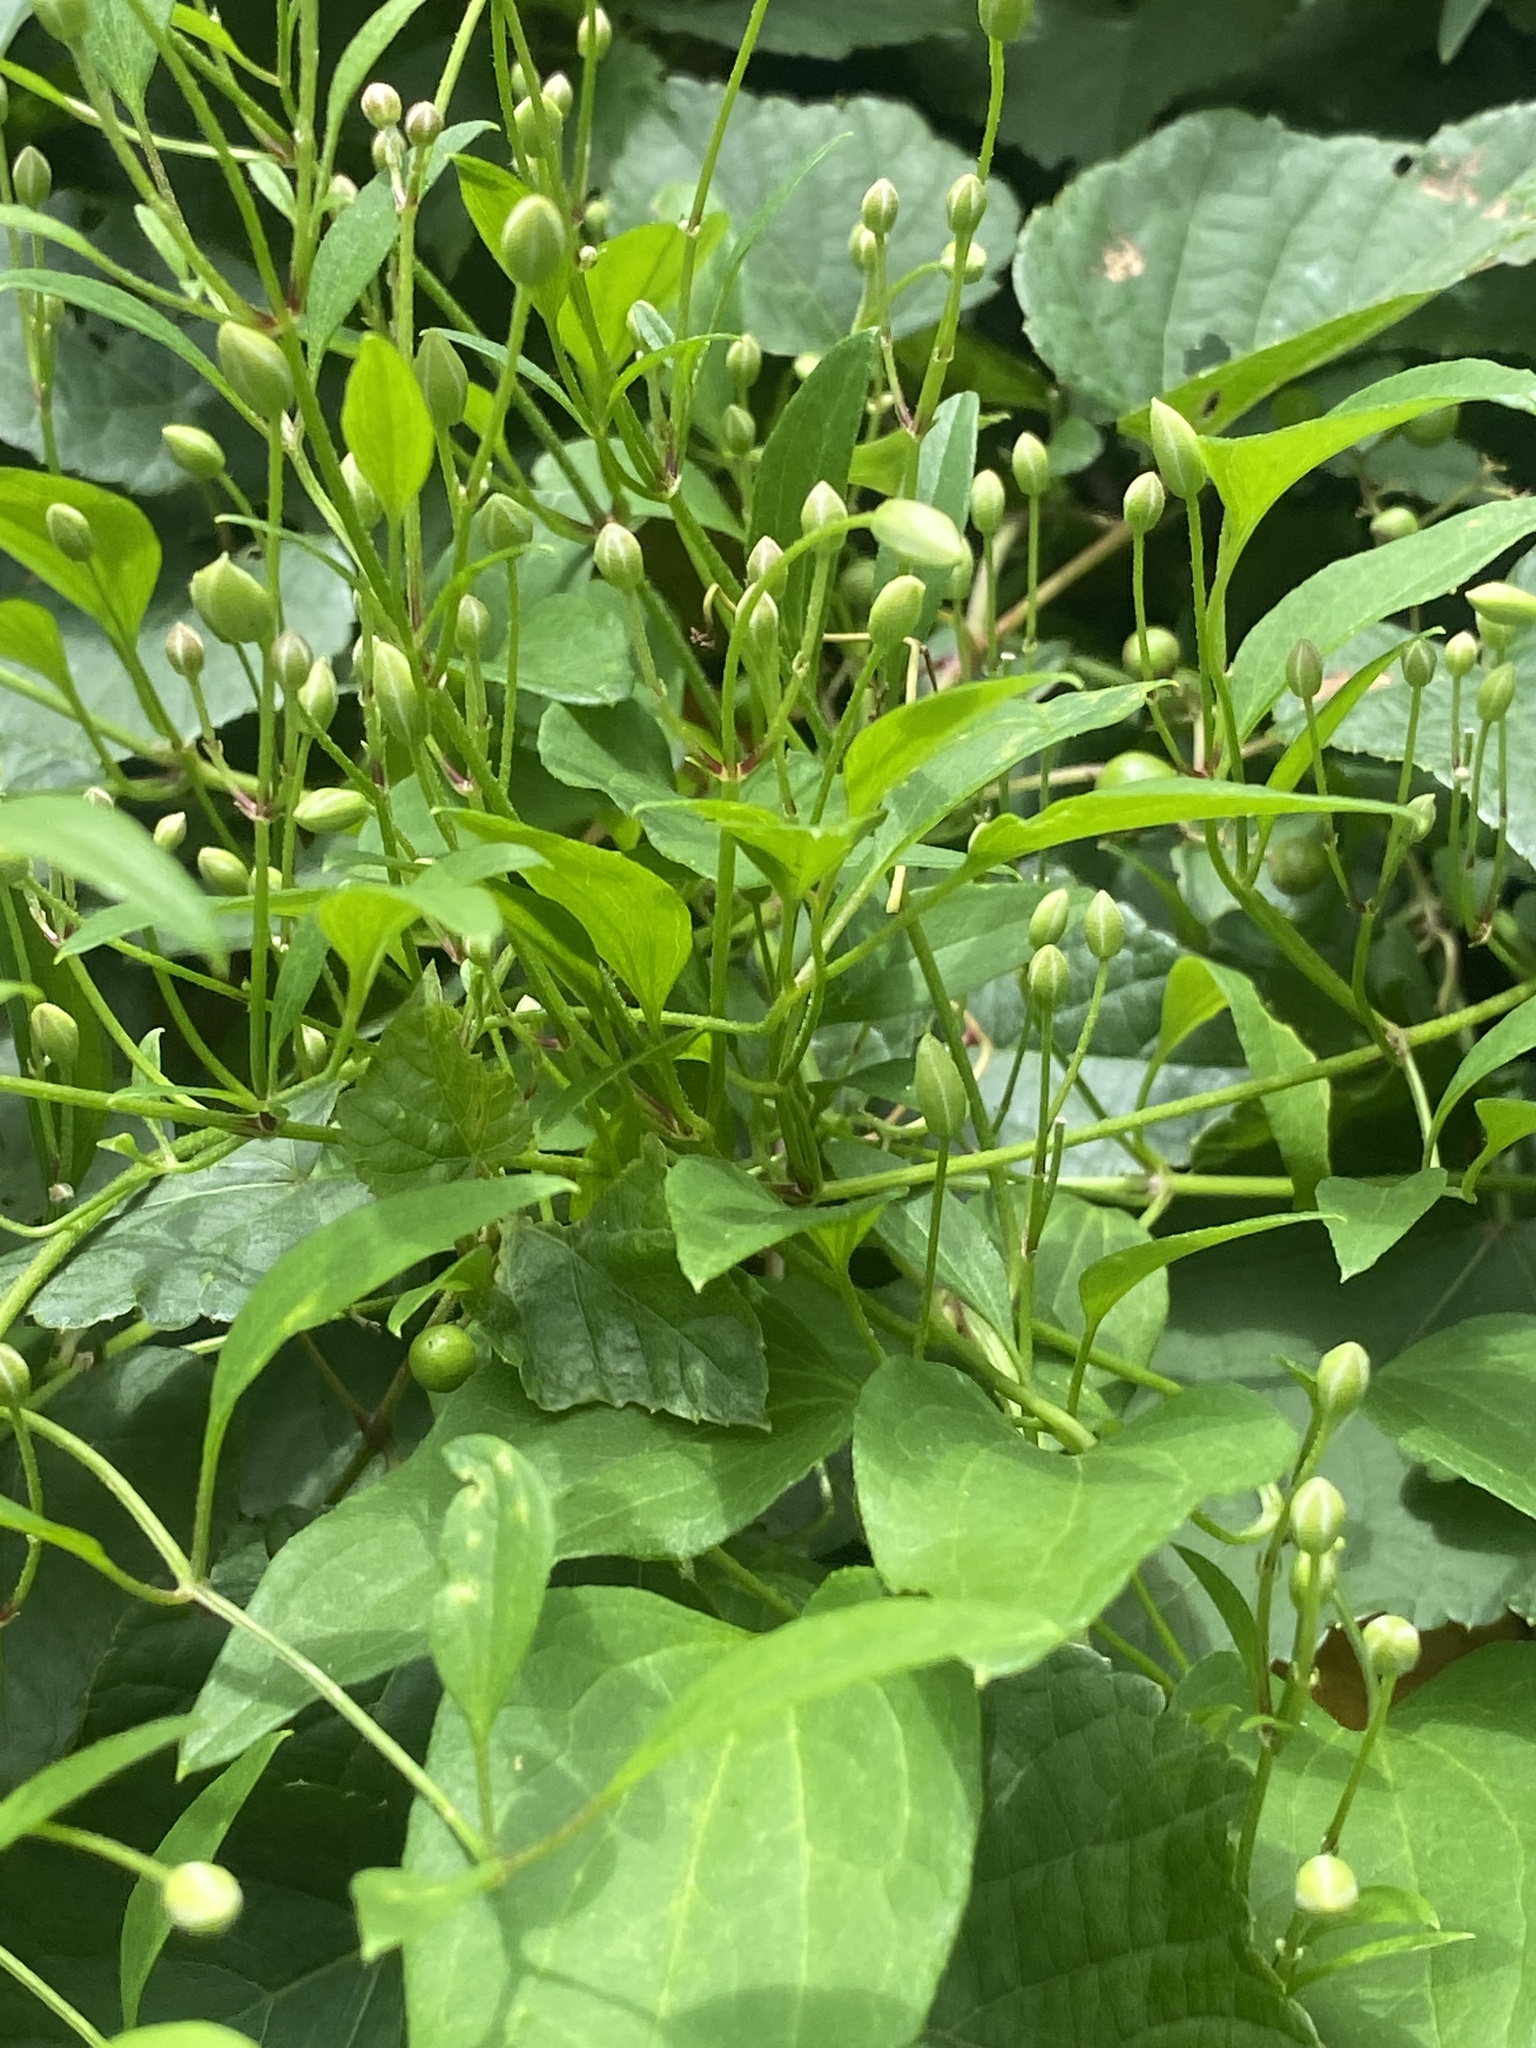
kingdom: Plantae
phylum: Tracheophyta
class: Magnoliopsida
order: Ranunculales
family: Ranunculaceae
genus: Clematis
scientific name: Clematis terniflora
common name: Sweet autumn clematis
